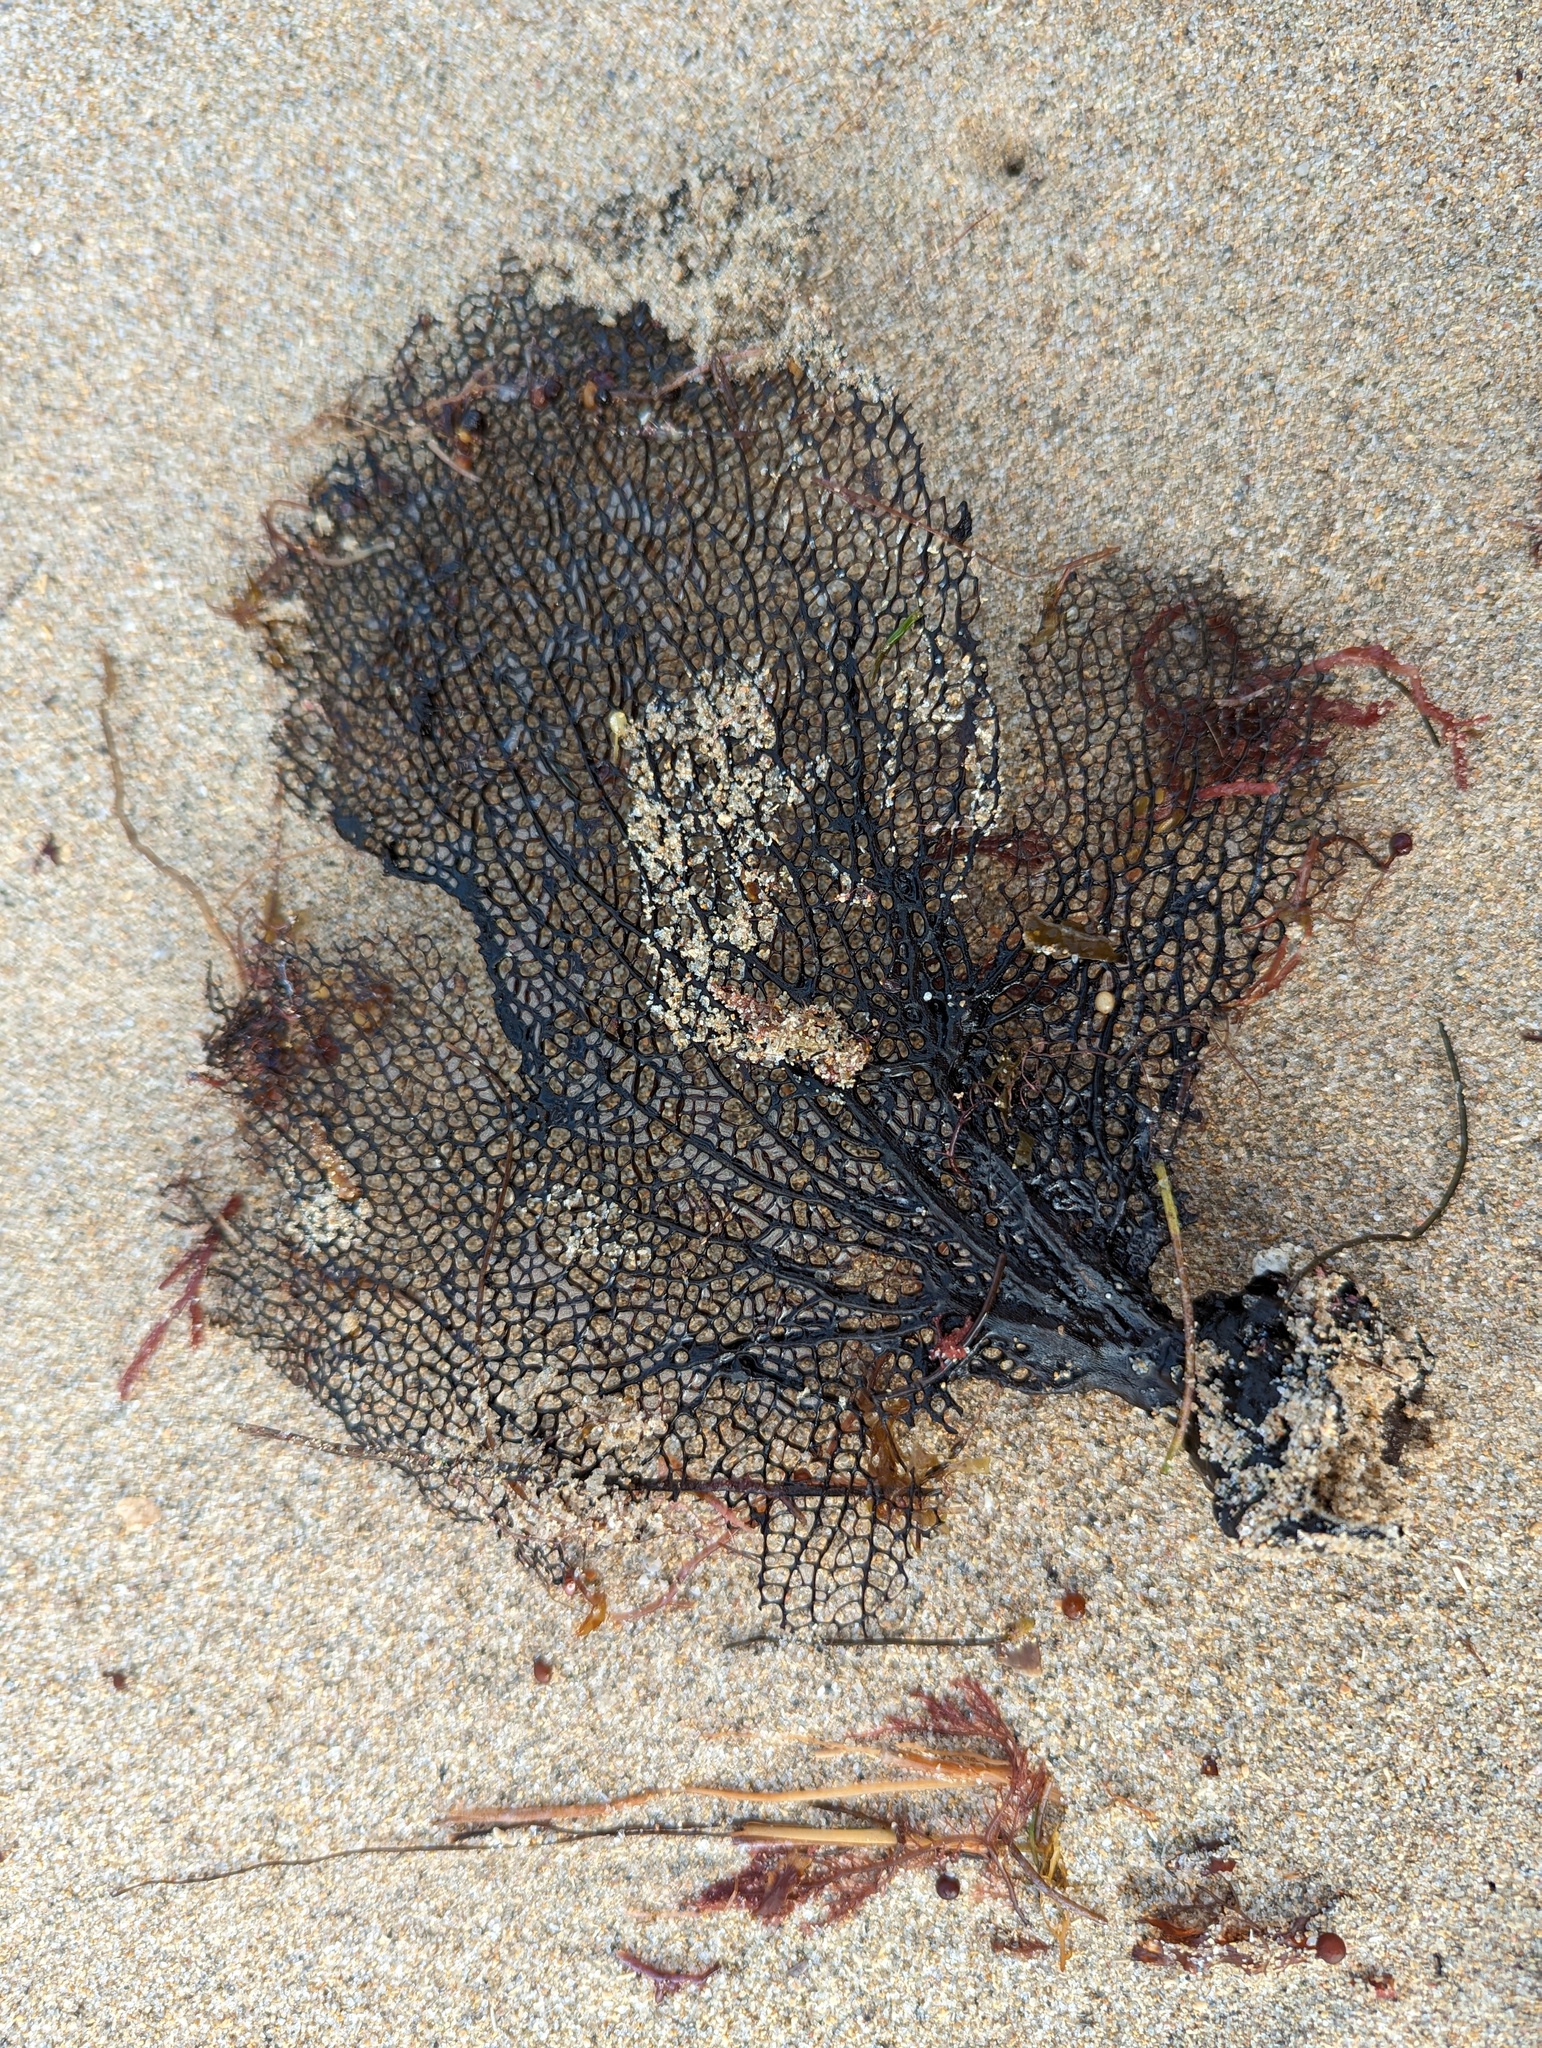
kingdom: Animalia
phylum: Cnidaria
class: Anthozoa
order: Malacalcyonacea
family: Gorgoniidae
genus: Gorgonia
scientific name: Gorgonia ventalina
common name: Common sea fan
